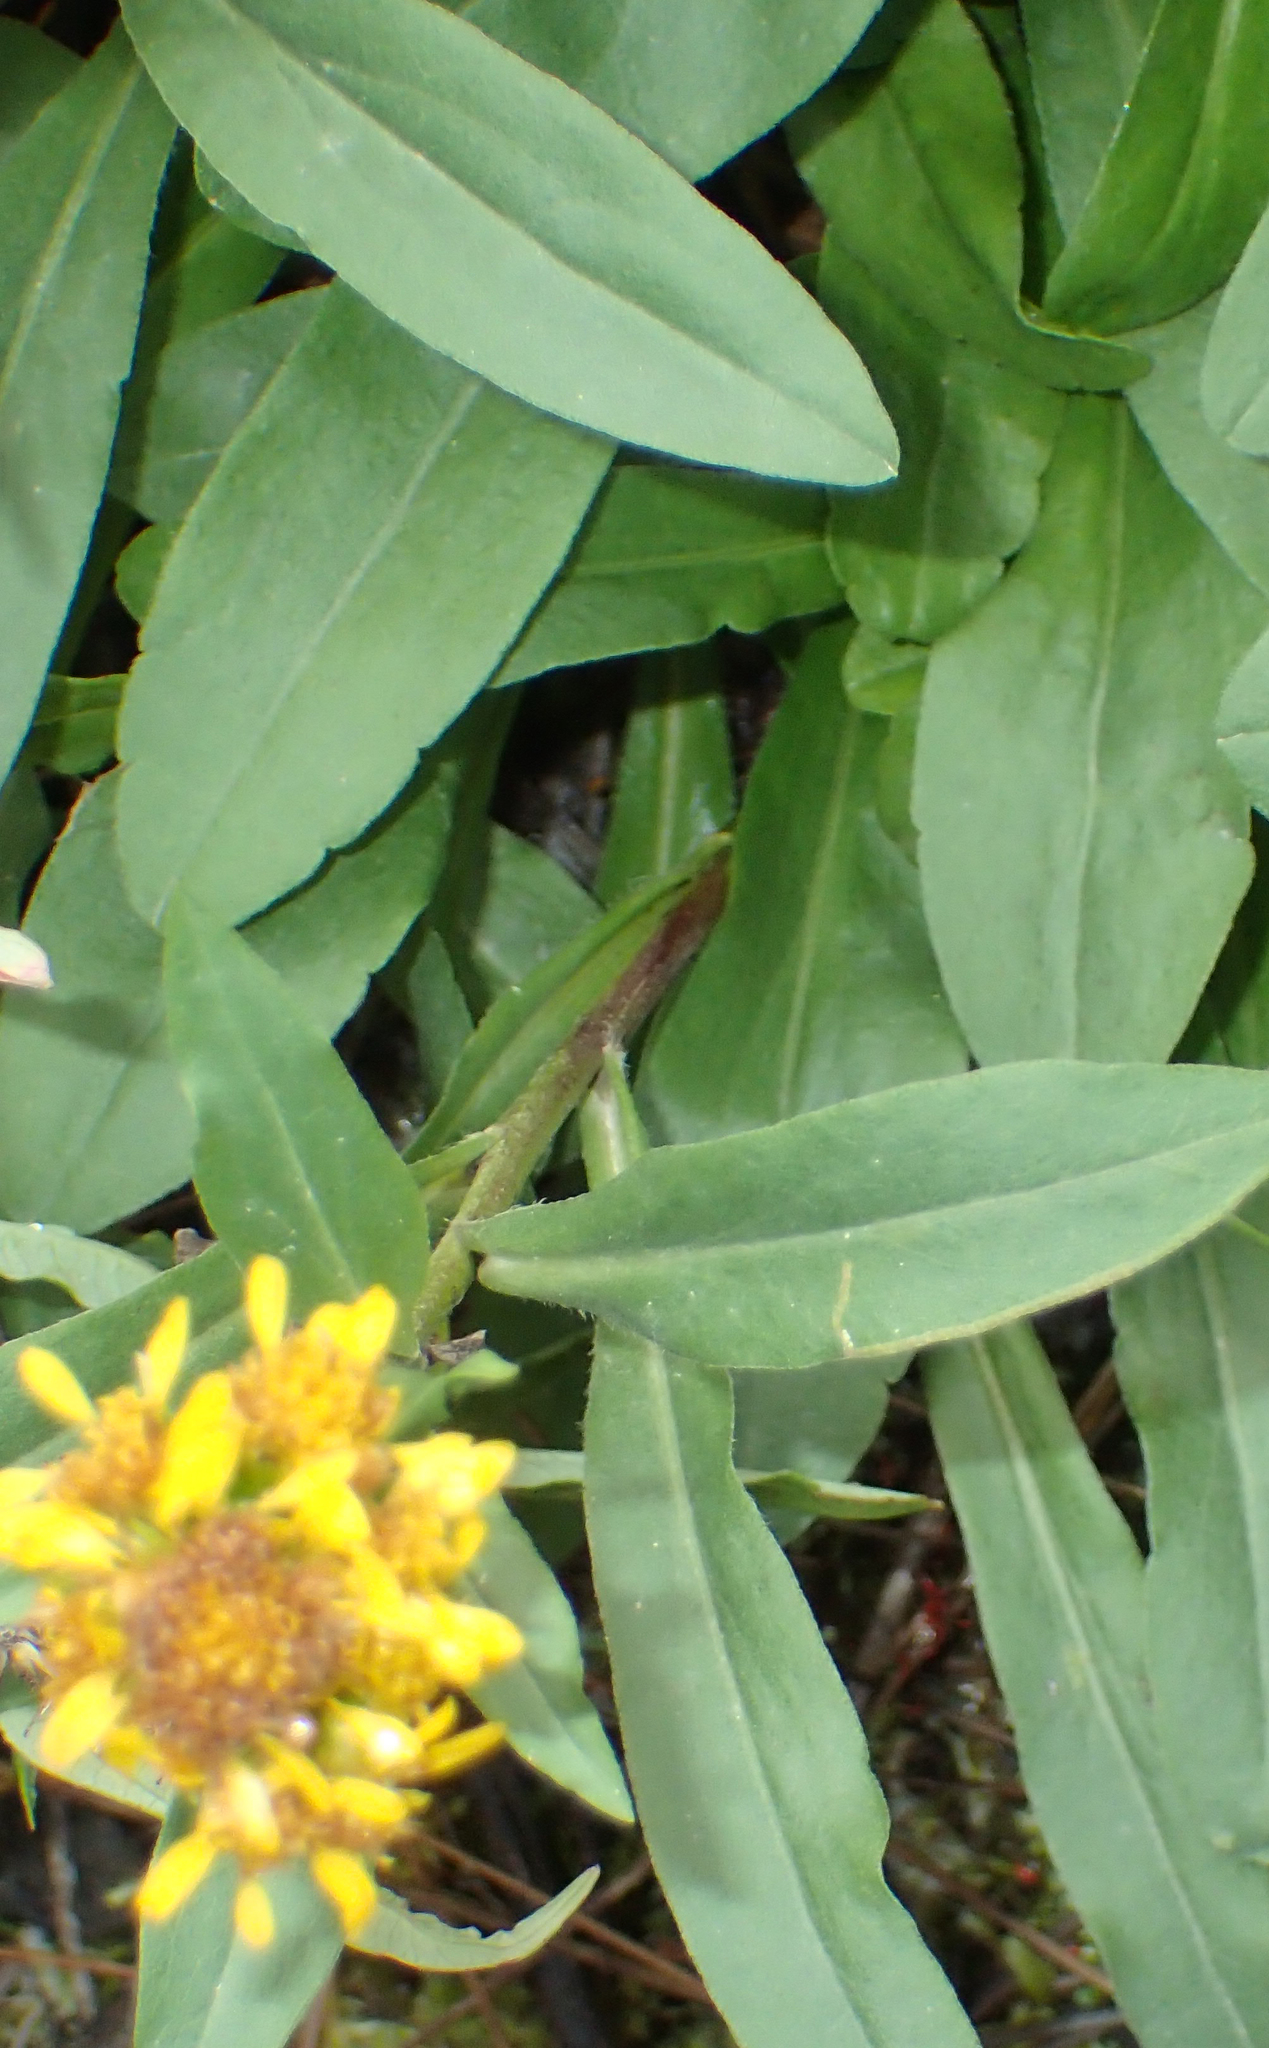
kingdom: Plantae
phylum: Tracheophyta
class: Magnoliopsida
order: Asterales
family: Asteraceae
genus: Solidago
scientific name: Solidago multiradiata
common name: Northern goldenrod
